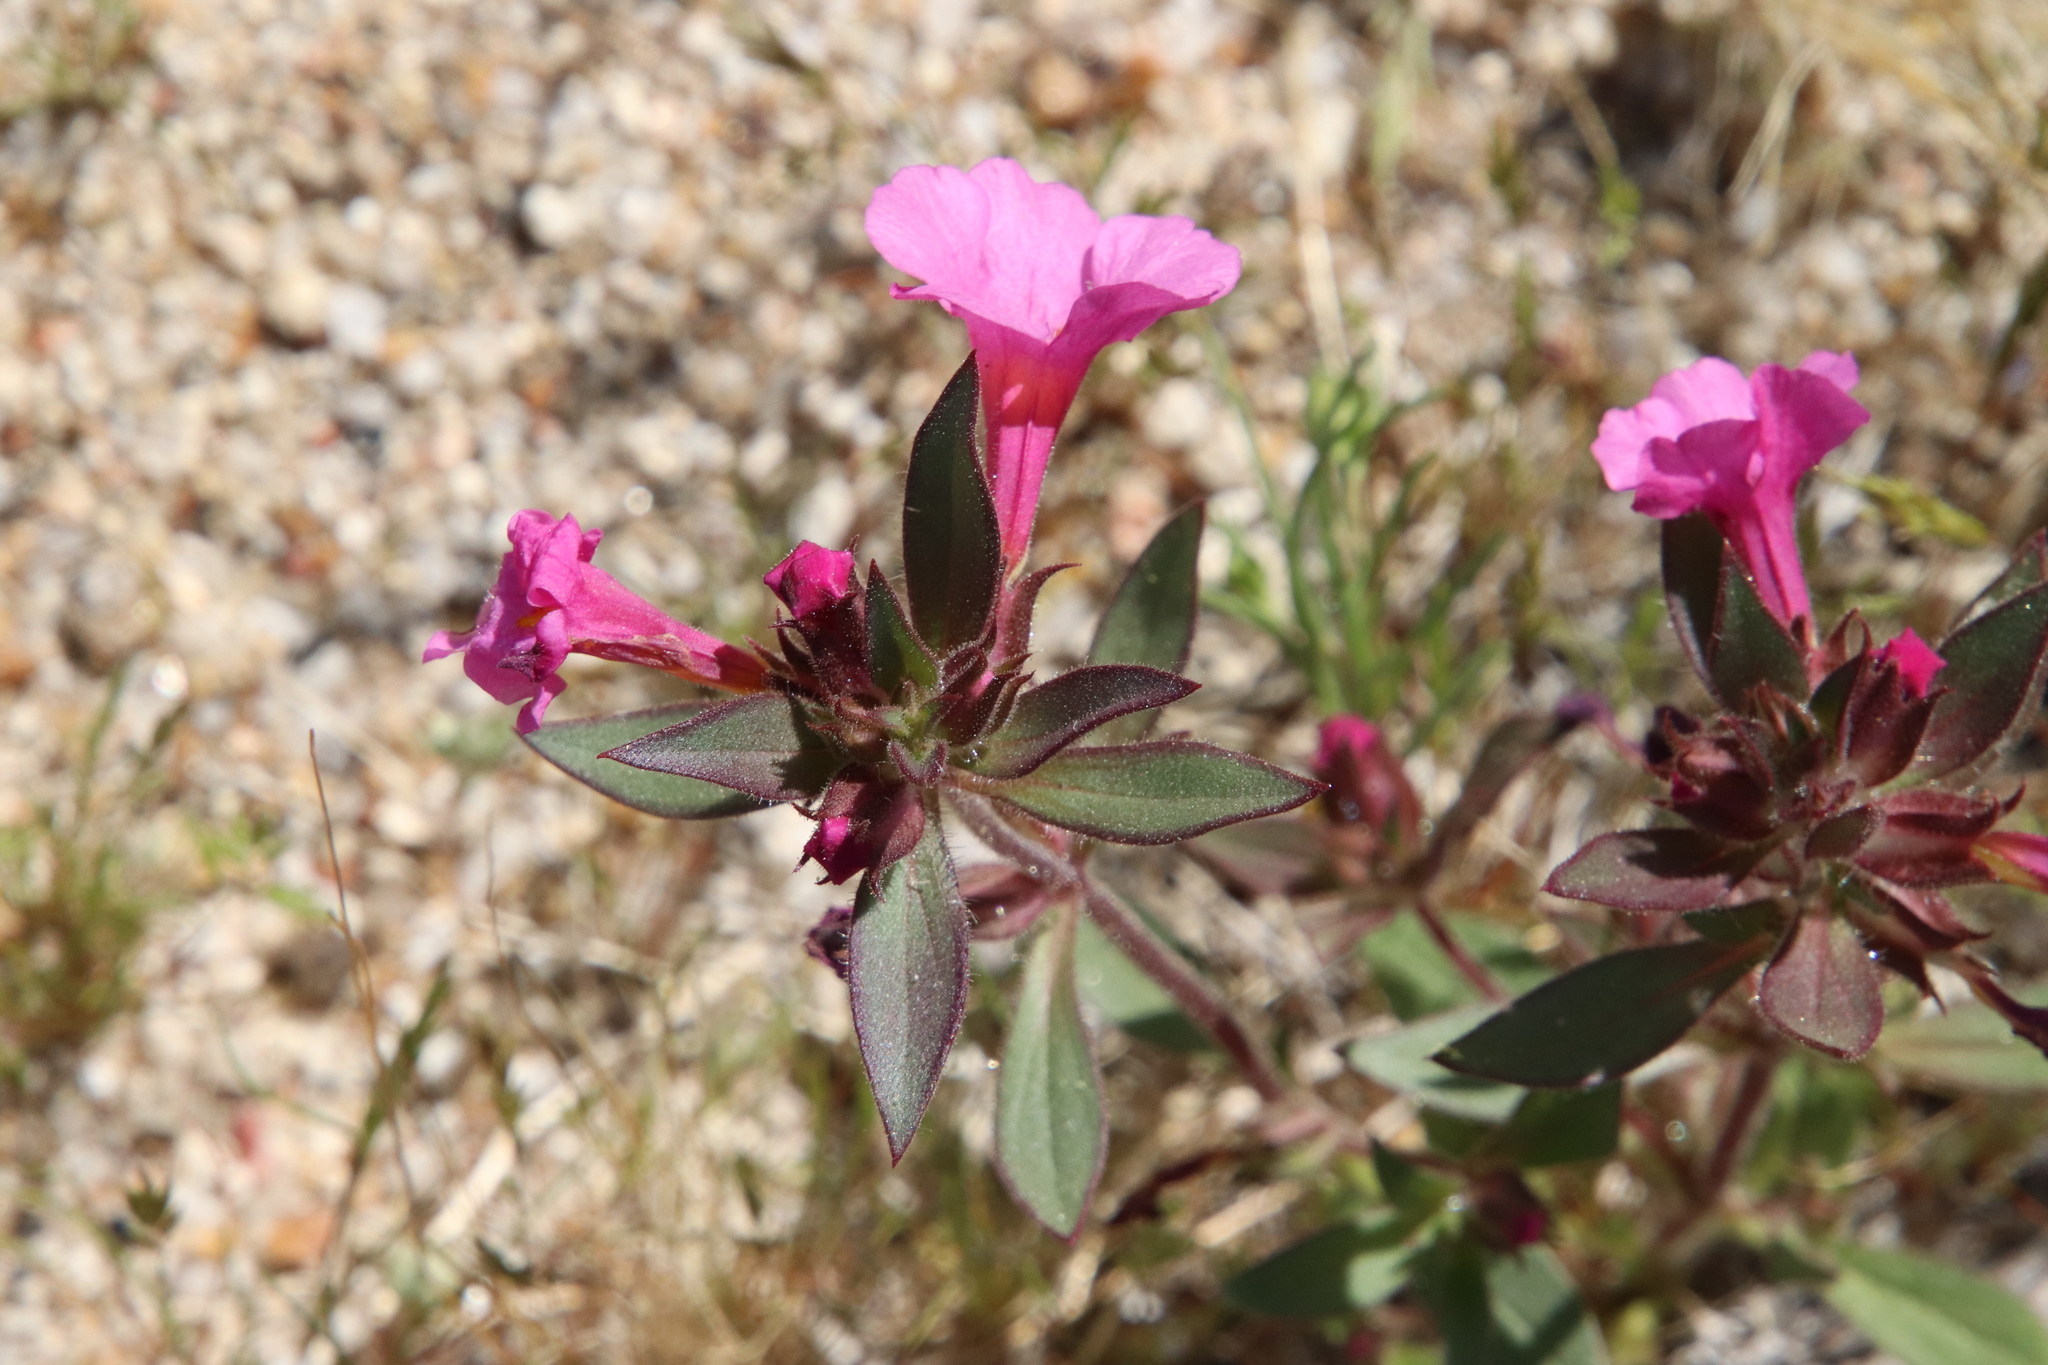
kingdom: Plantae
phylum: Tracheophyta
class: Magnoliopsida
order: Lamiales
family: Phrymaceae
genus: Diplacus
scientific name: Diplacus bigelovii
